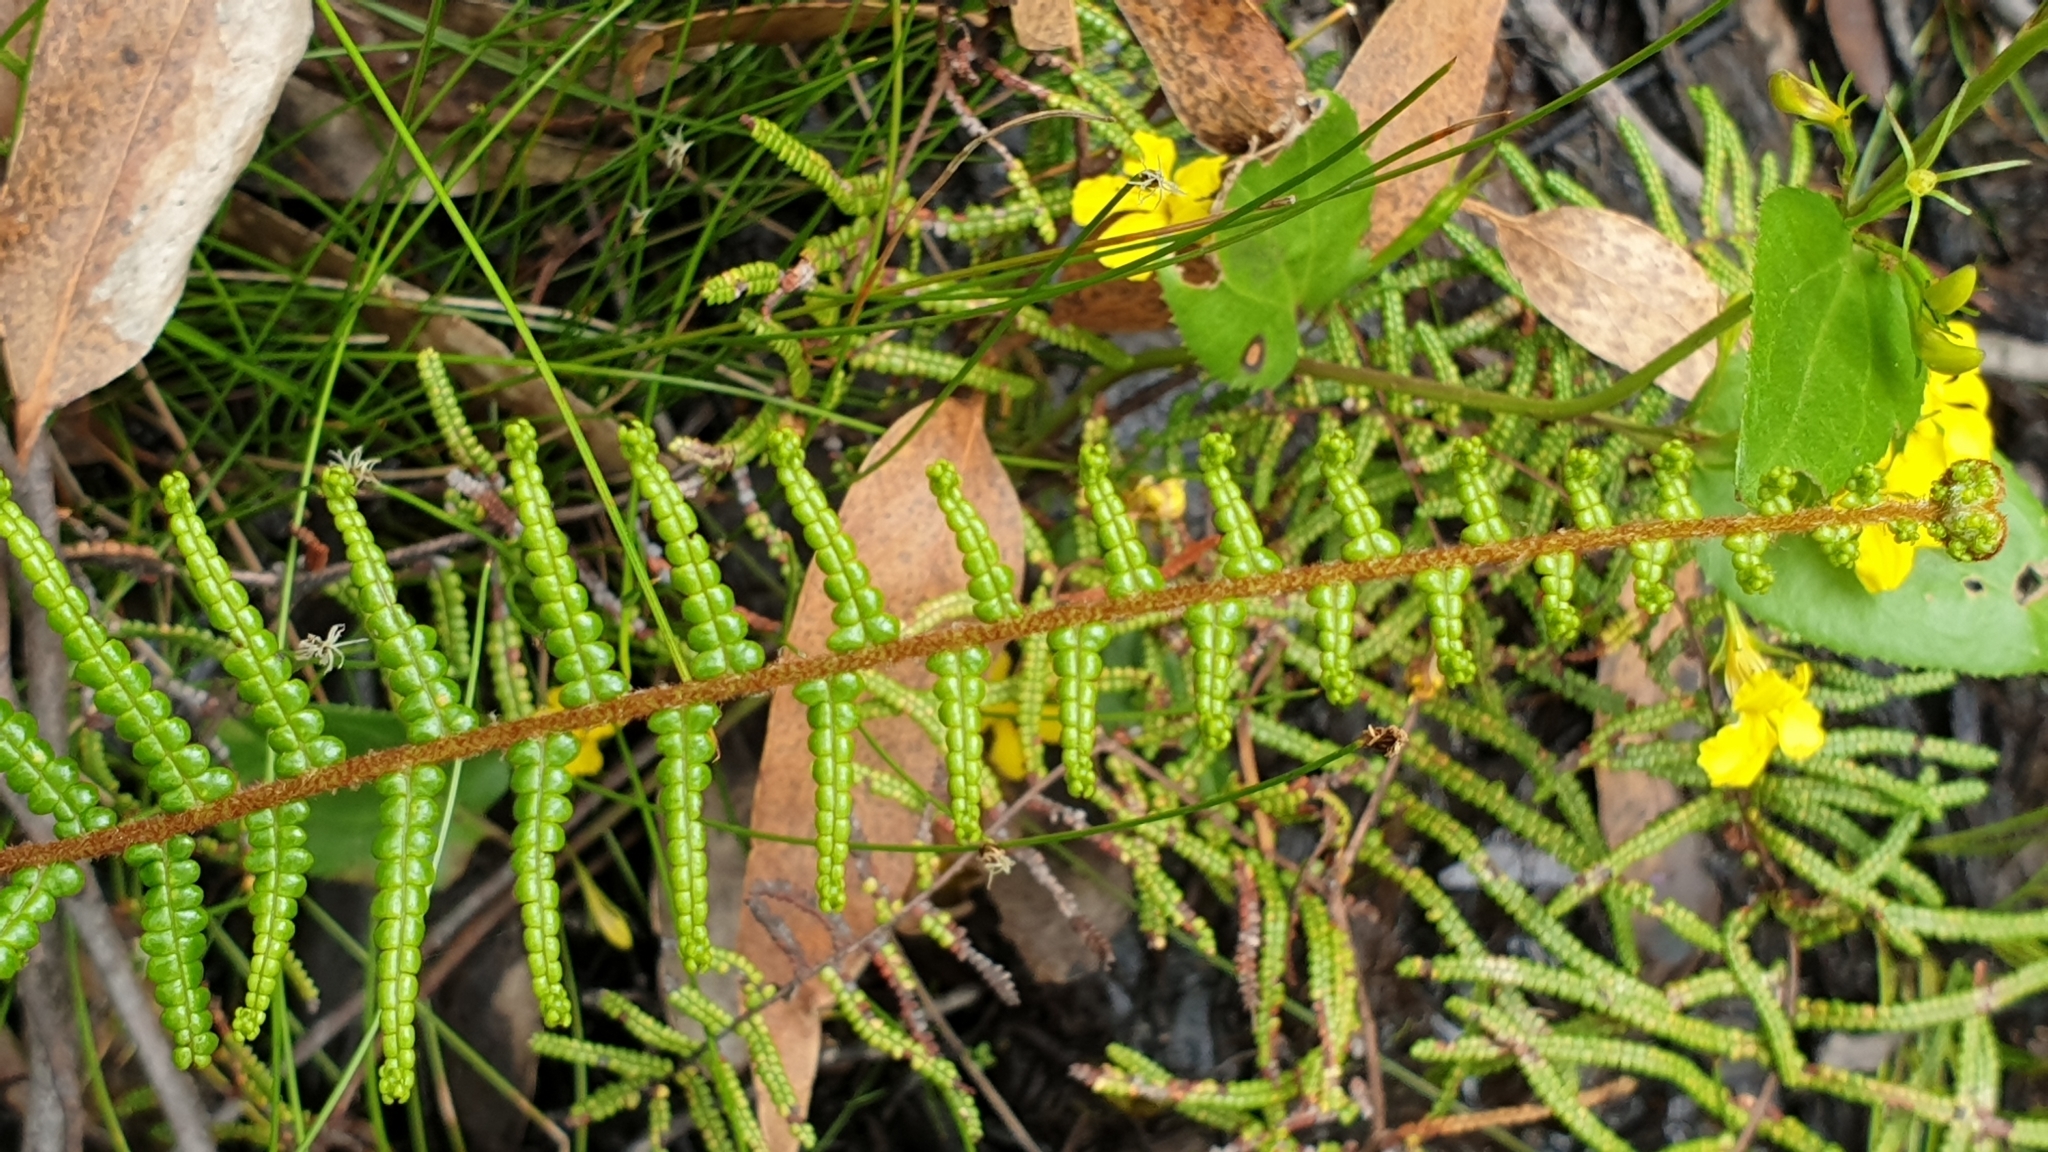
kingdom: Plantae
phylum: Tracheophyta
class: Polypodiopsida
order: Gleicheniales
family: Gleicheniaceae
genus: Gleichenia
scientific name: Gleichenia microphylla
